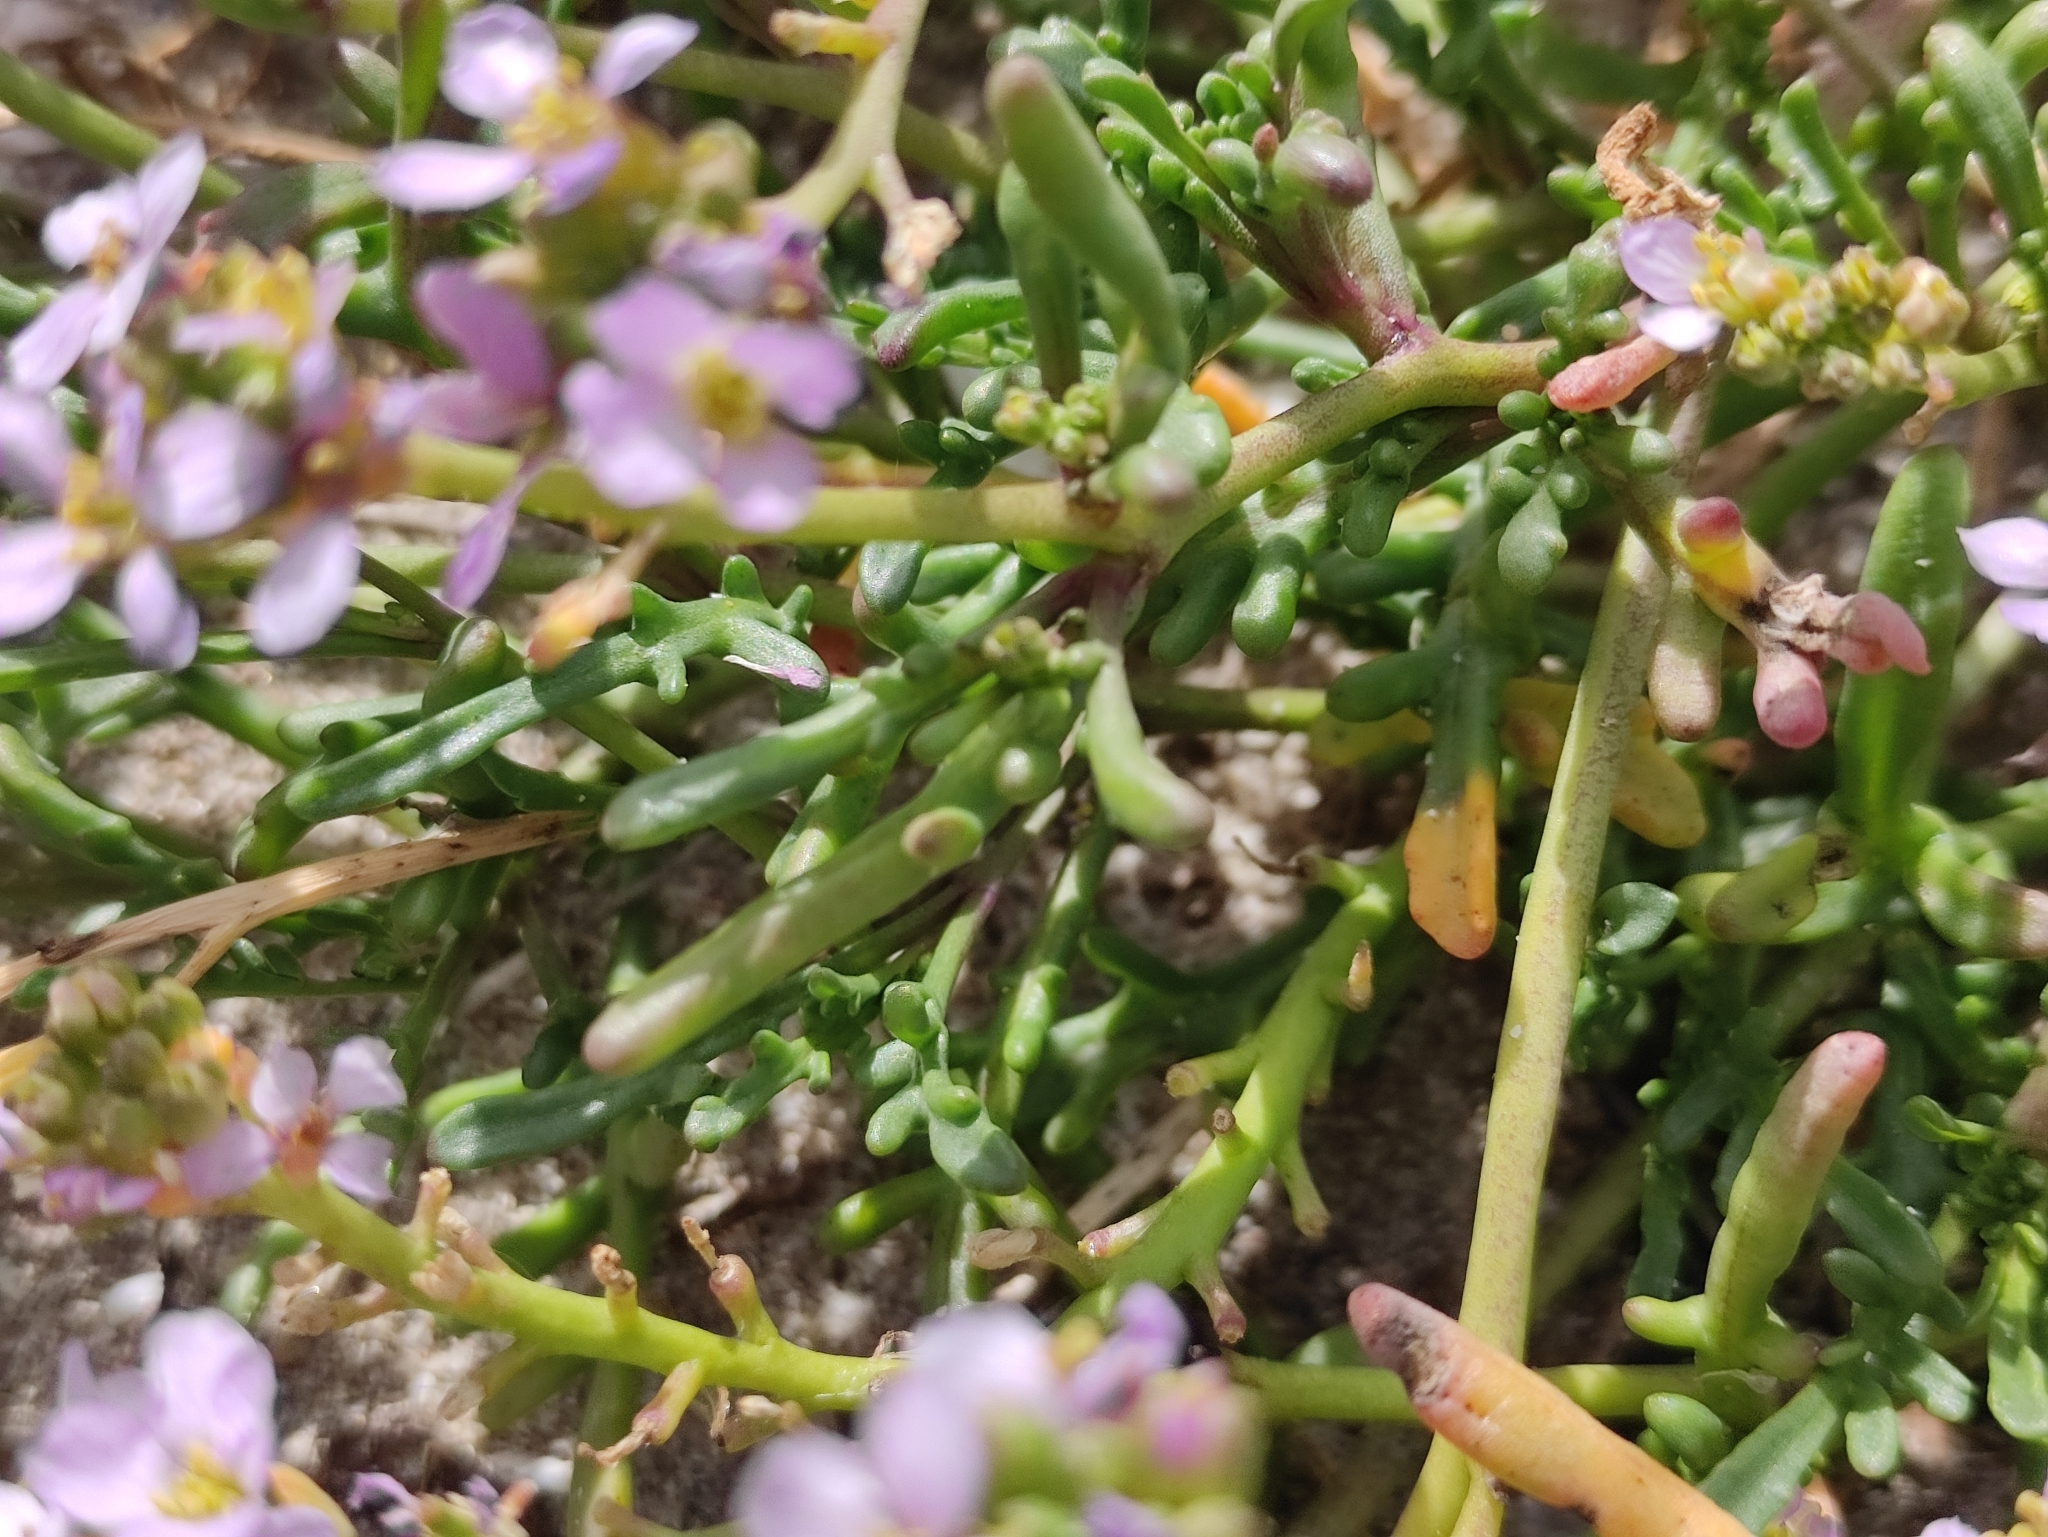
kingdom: Plantae
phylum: Tracheophyta
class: Magnoliopsida
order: Brassicales
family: Brassicaceae
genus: Cakile
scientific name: Cakile maritima
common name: Sea rocket
